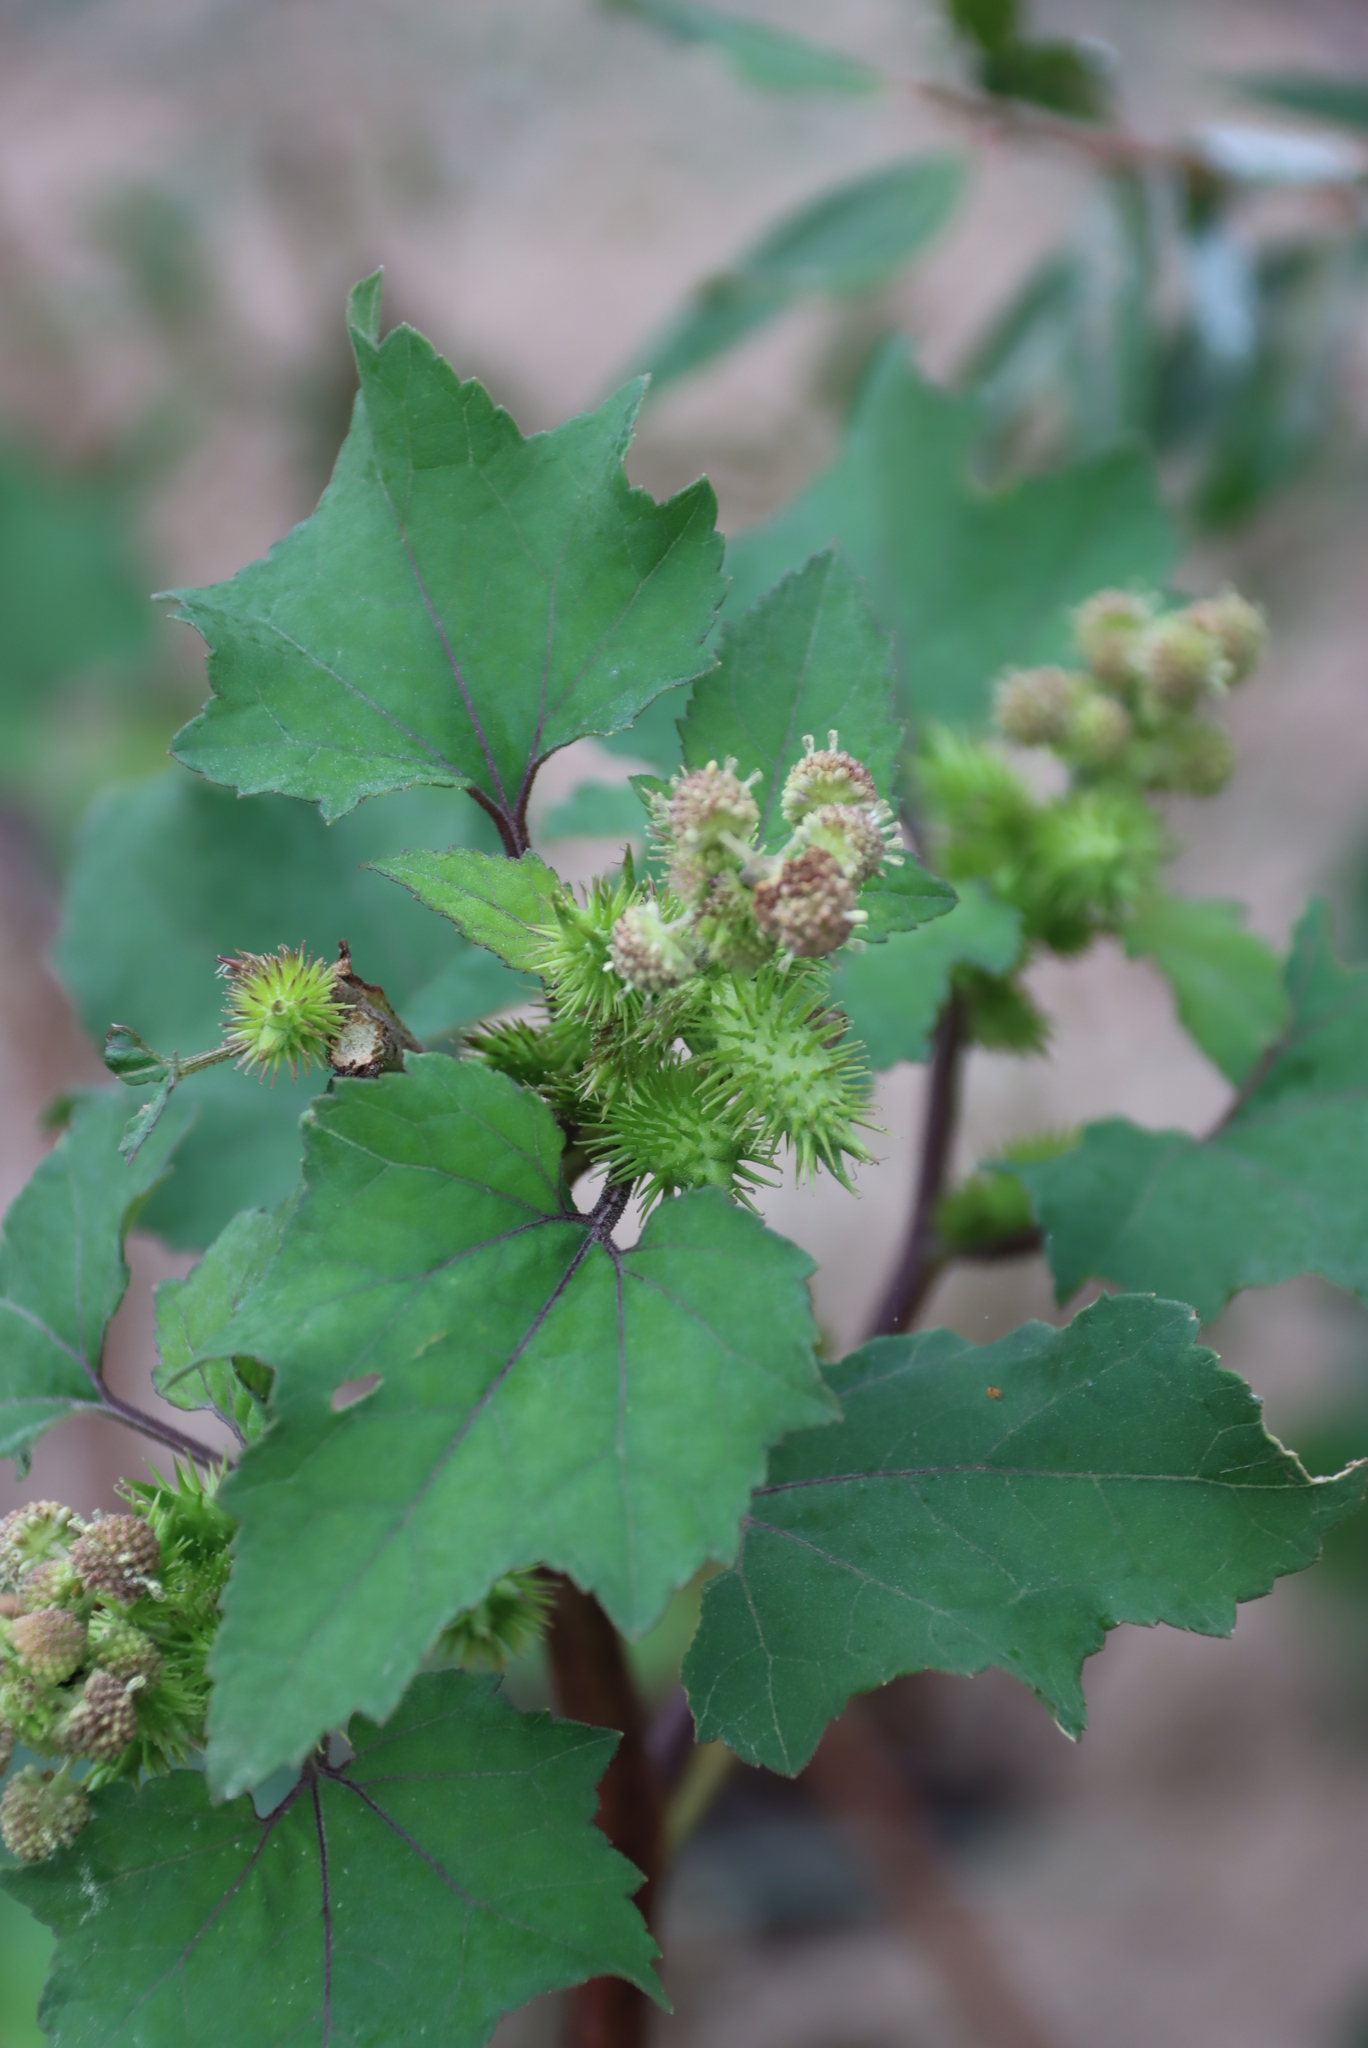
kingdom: Plantae
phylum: Tracheophyta
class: Magnoliopsida
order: Asterales
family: Asteraceae
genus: Xanthium
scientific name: Xanthium strumarium
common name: Rough cocklebur
